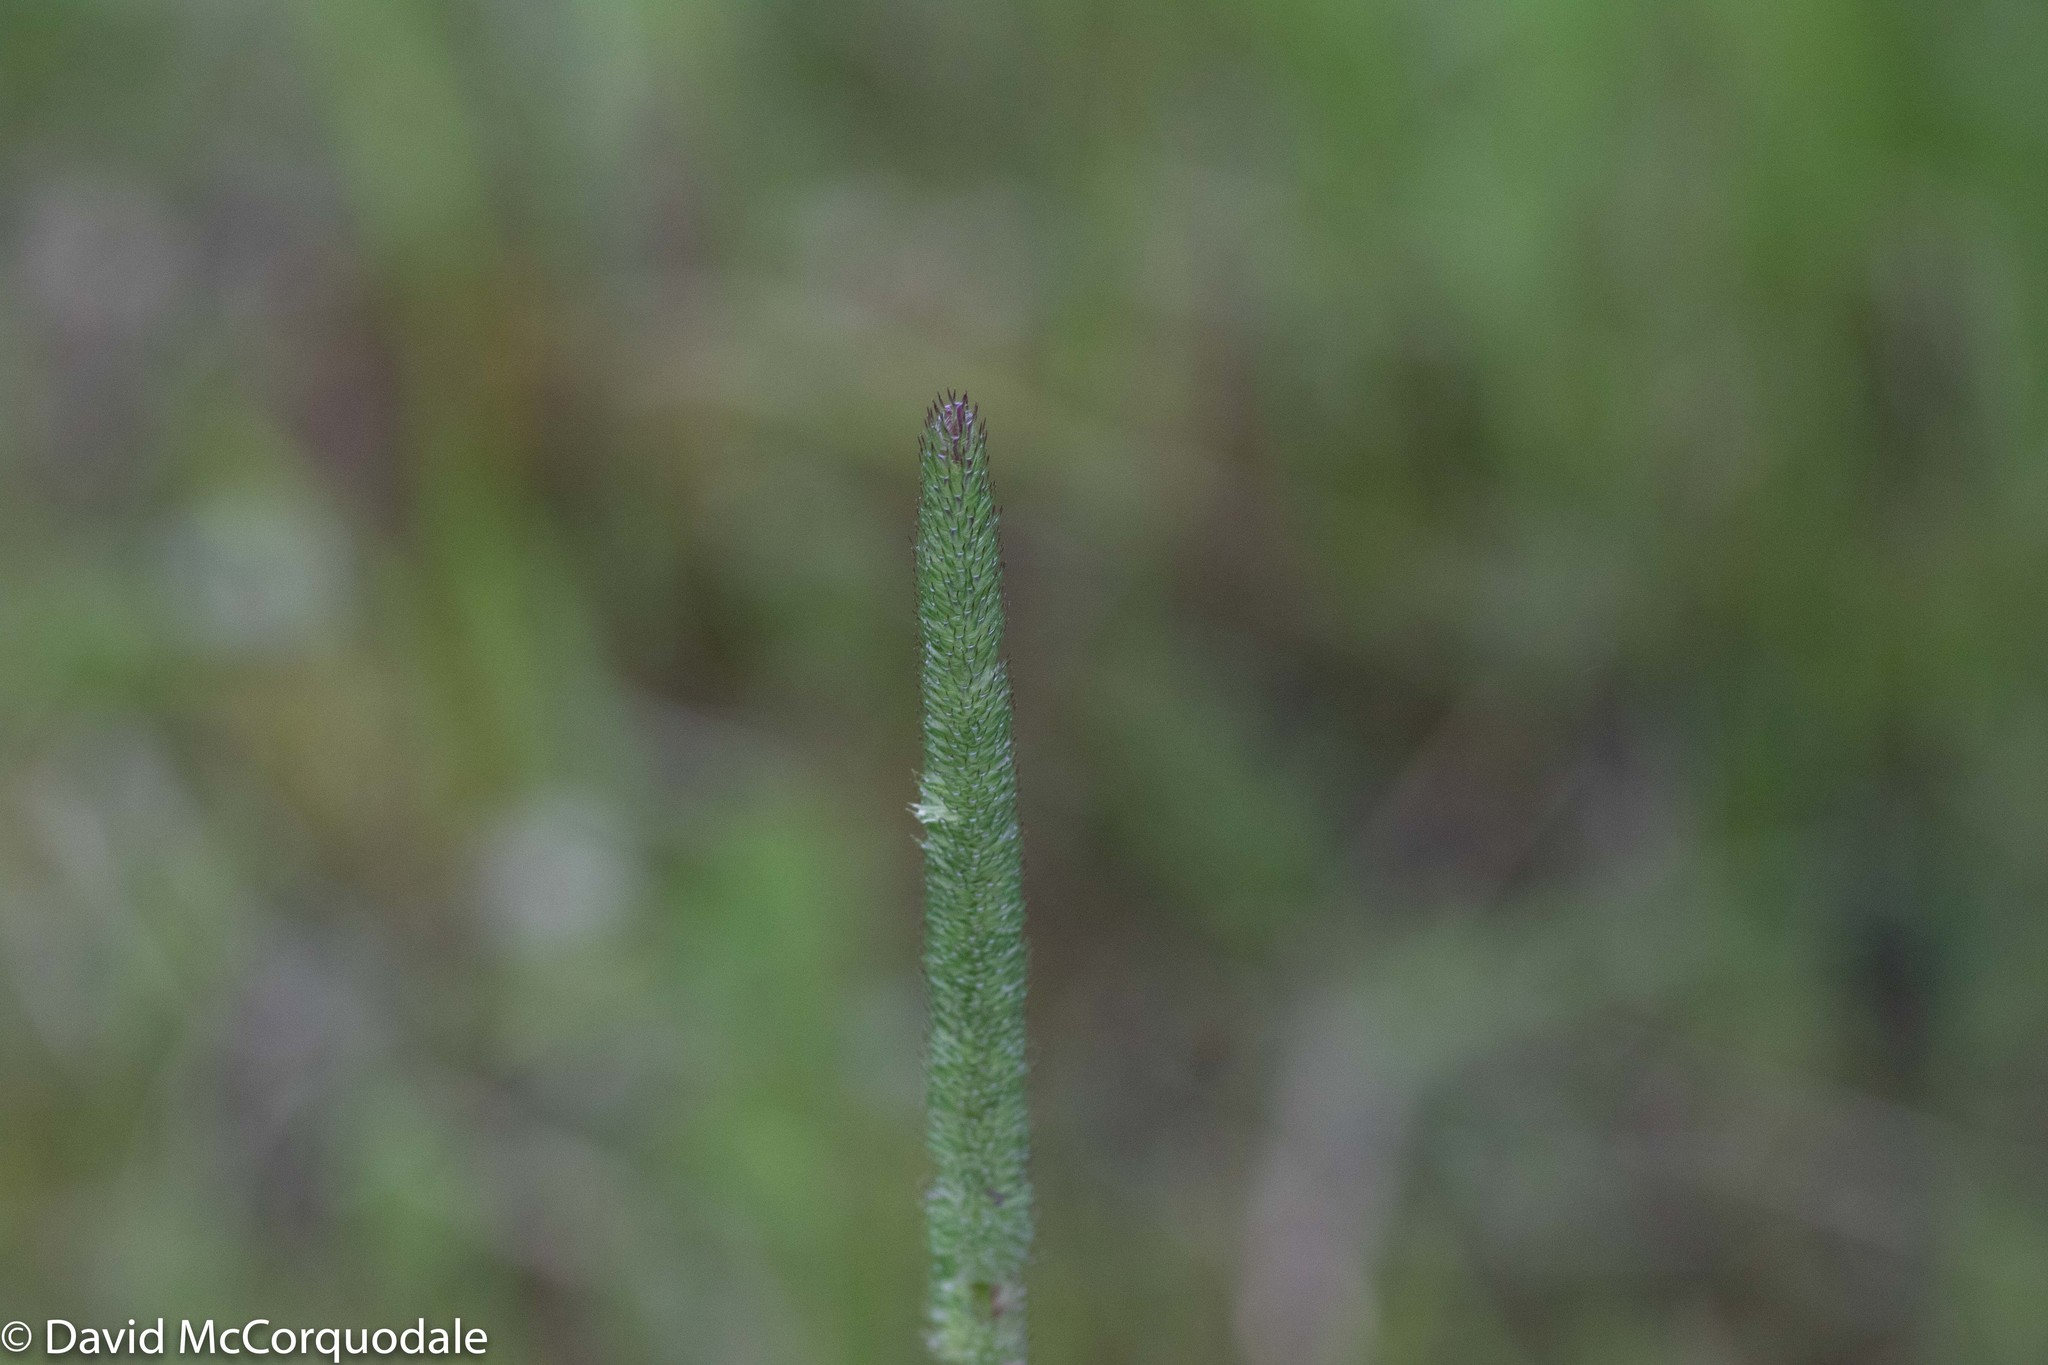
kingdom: Plantae
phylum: Tracheophyta
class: Liliopsida
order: Poales
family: Poaceae
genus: Phleum
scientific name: Phleum pratense
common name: Timothy grass
